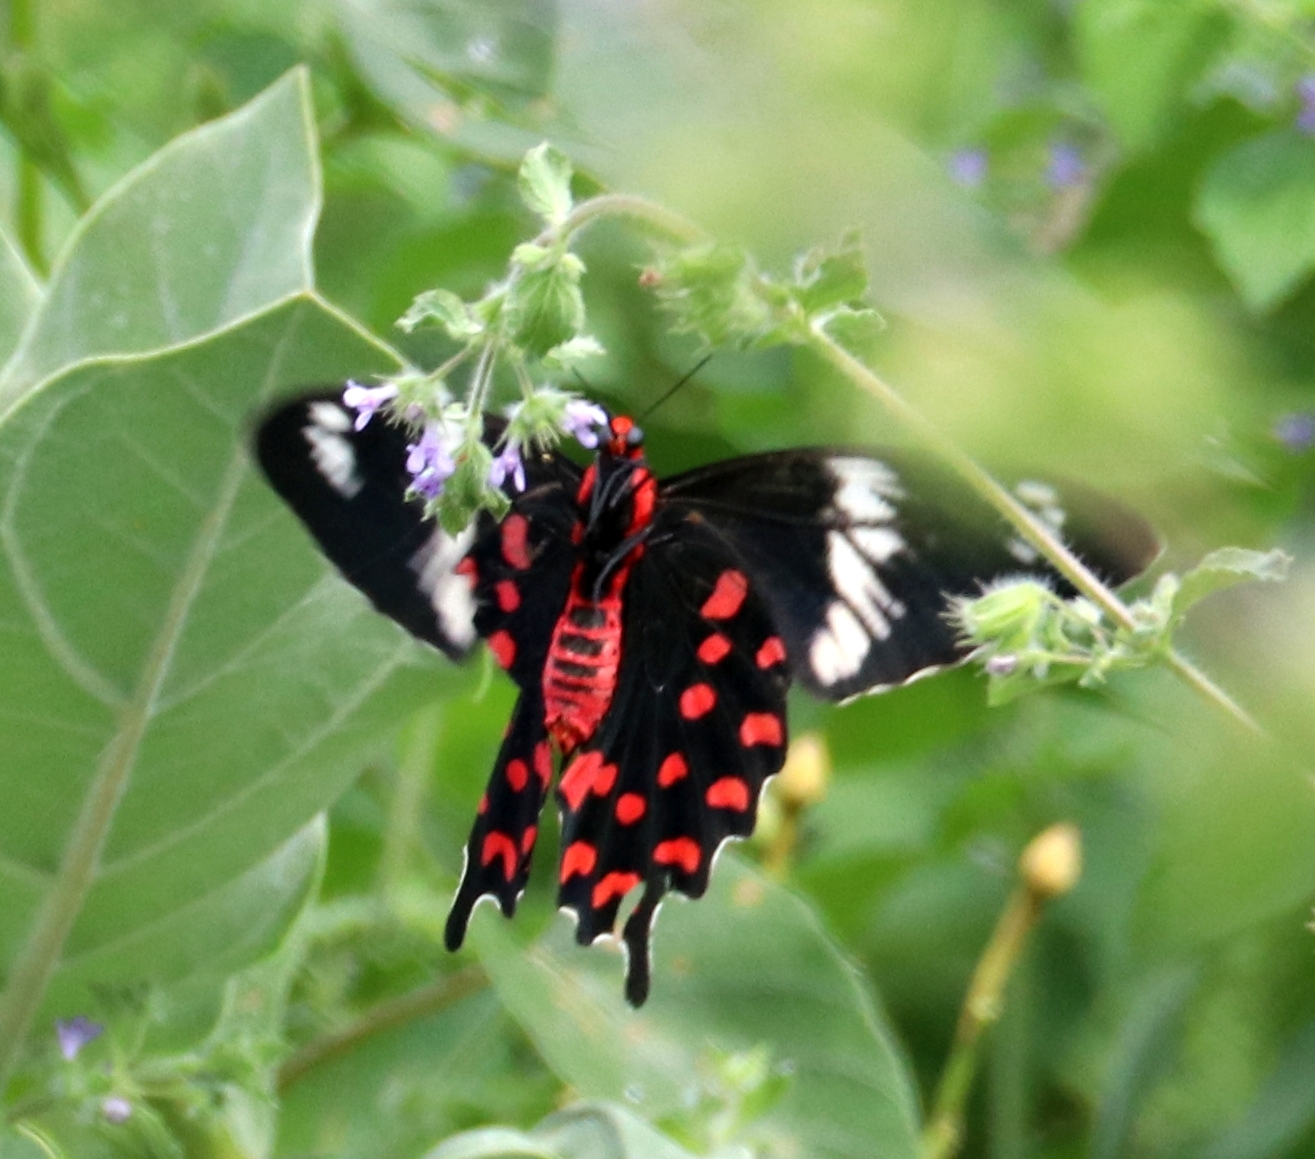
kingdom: Animalia
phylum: Arthropoda
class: Insecta
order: Lepidoptera
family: Papilionidae
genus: Pachliopta
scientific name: Pachliopta hector
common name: Crimson rose
